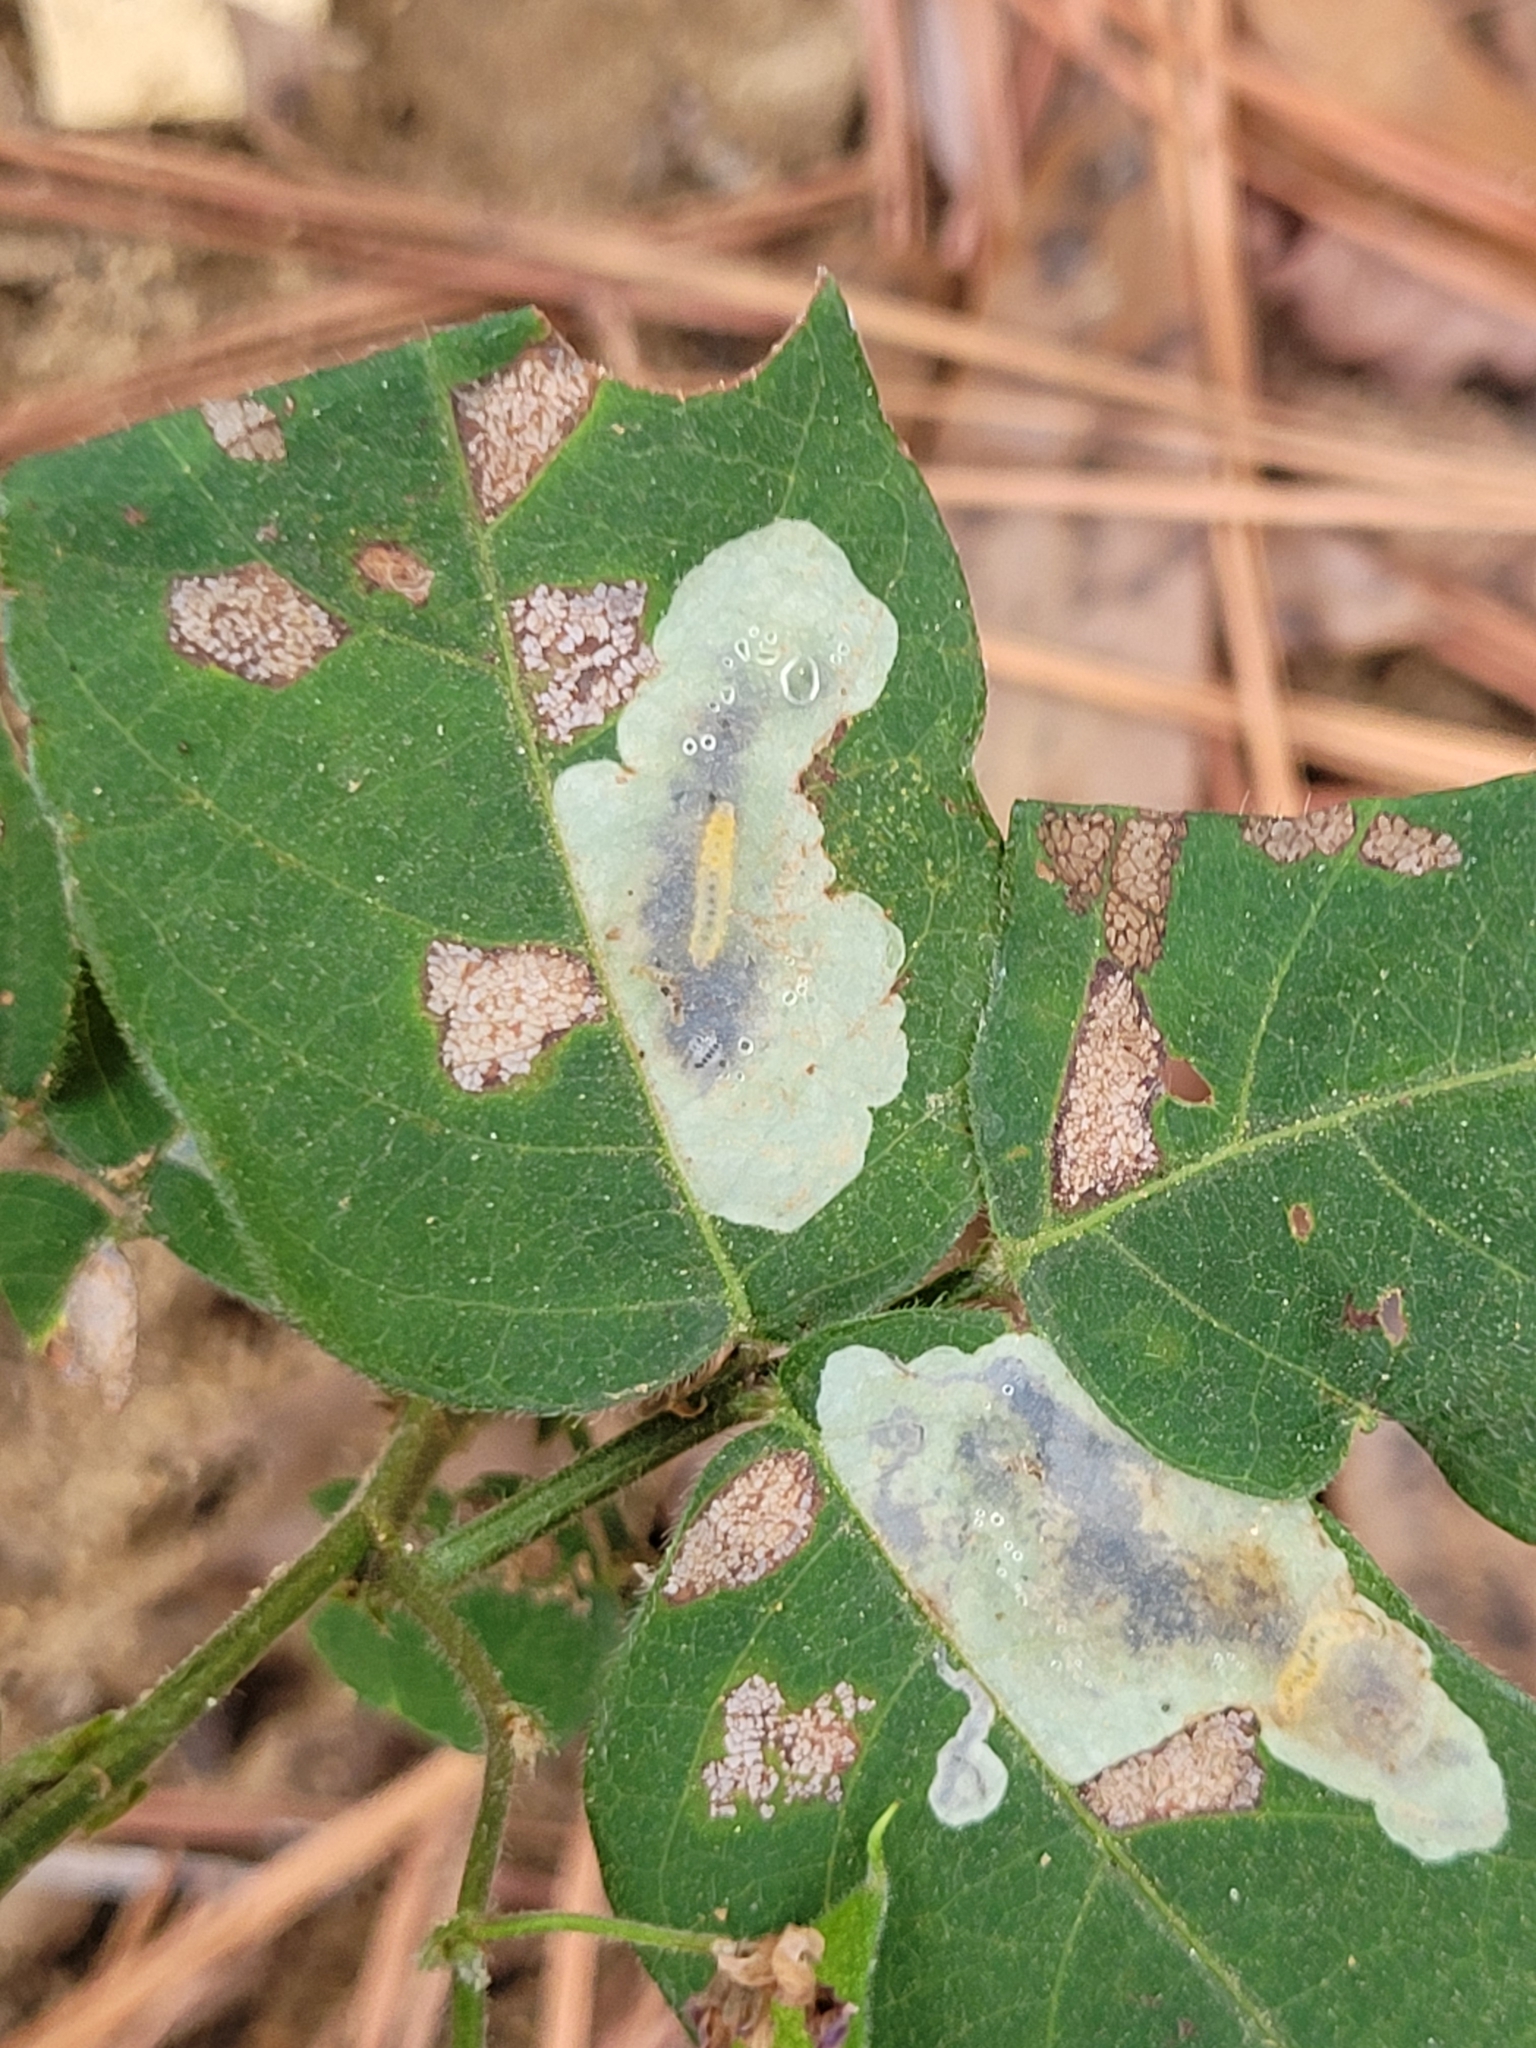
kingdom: Animalia
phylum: Arthropoda
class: Insecta
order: Lepidoptera
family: Gracillariidae
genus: Anarsioses
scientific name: Anarsioses aberrans
